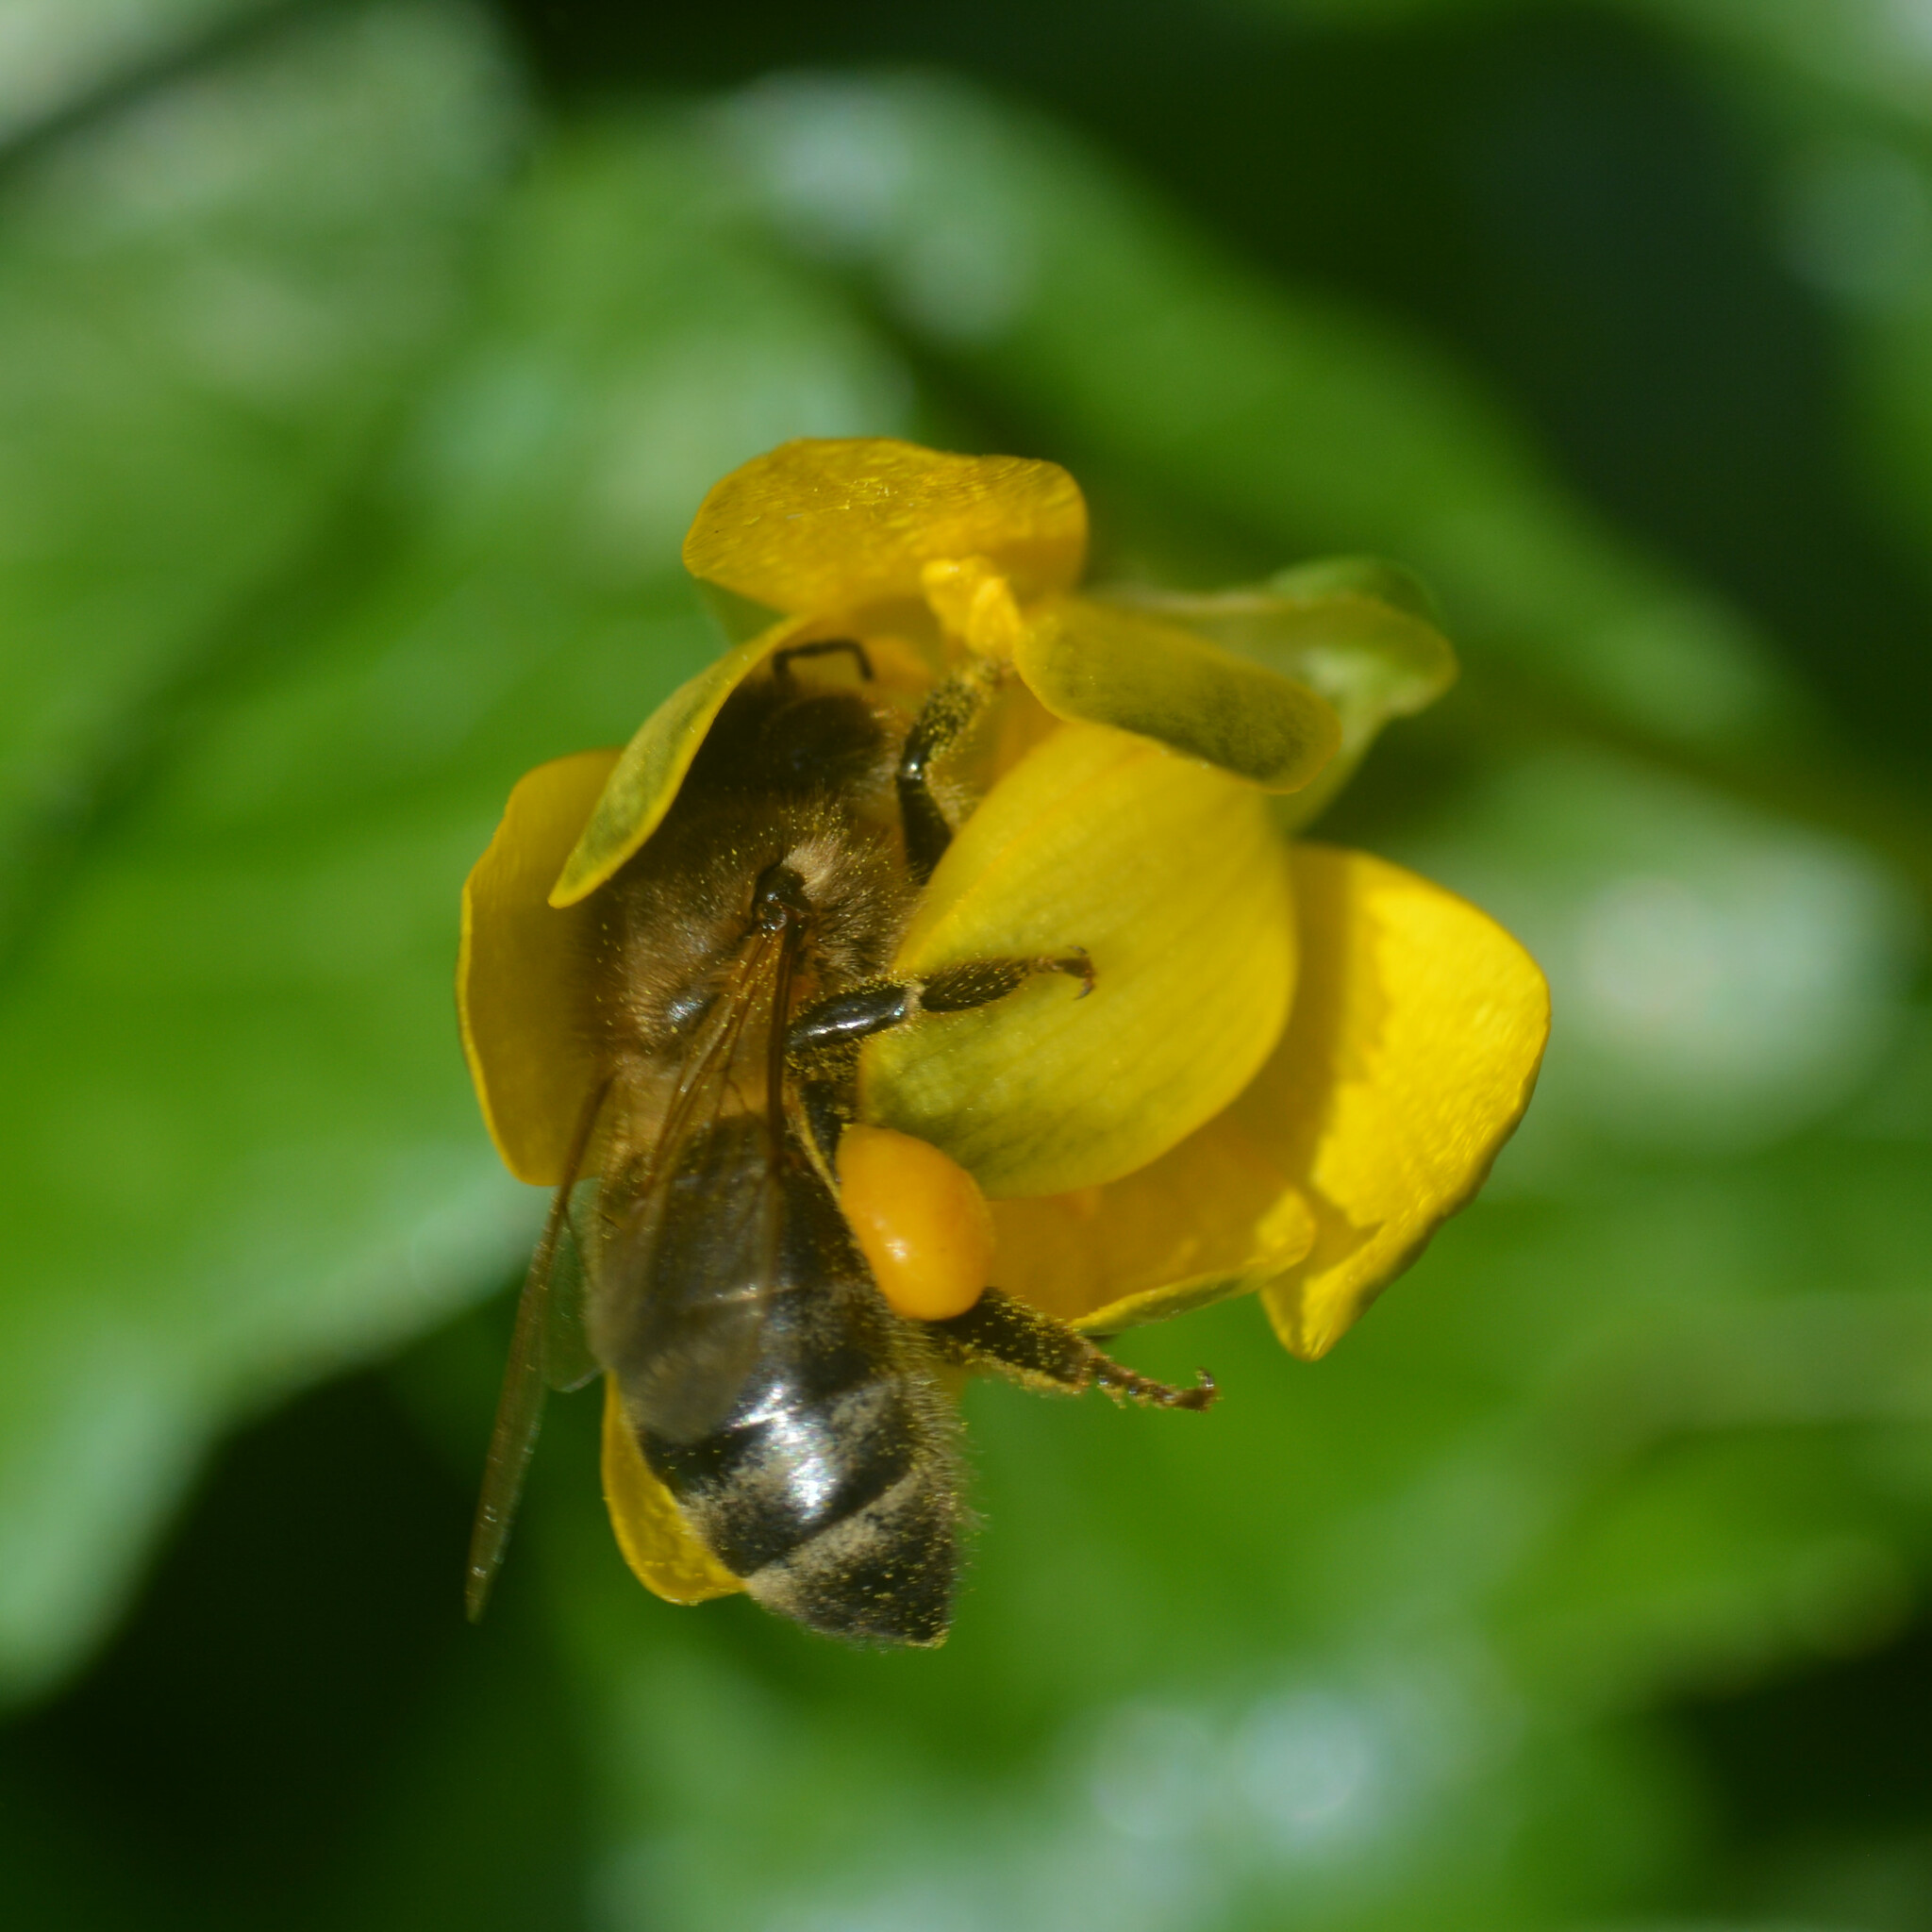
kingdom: Animalia
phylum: Arthropoda
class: Insecta
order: Hymenoptera
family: Apidae
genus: Apis
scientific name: Apis mellifera
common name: Honey bee
